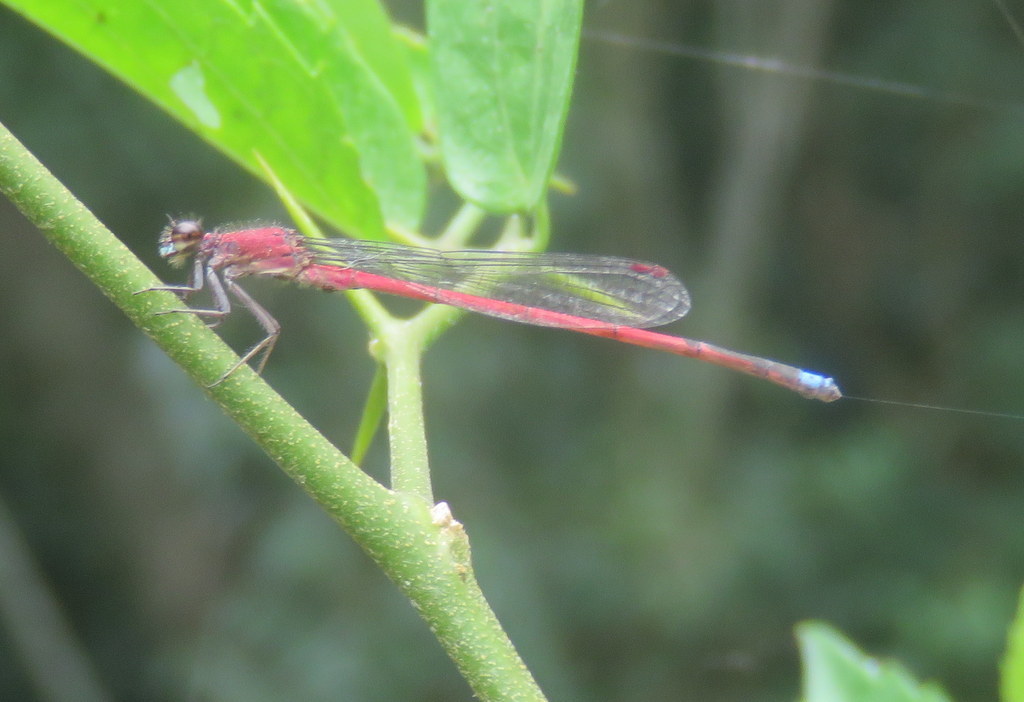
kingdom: Animalia
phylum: Arthropoda
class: Insecta
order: Odonata
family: Coenagrionidae
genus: Oxyagrion
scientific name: Oxyagrion terminale
